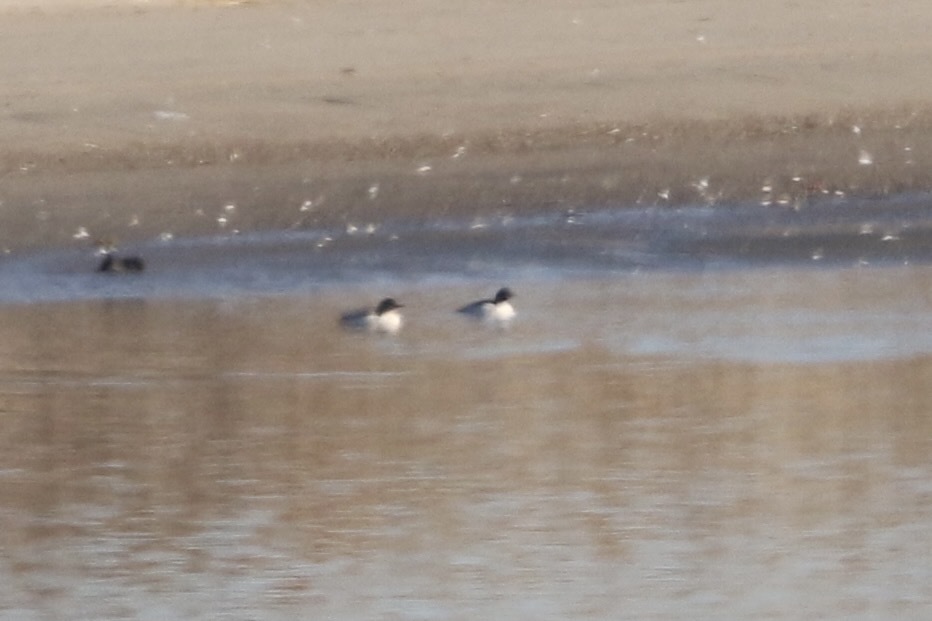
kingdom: Animalia
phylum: Chordata
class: Aves
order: Anseriformes
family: Anatidae
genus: Mergus
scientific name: Mergus merganser
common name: Common merganser
